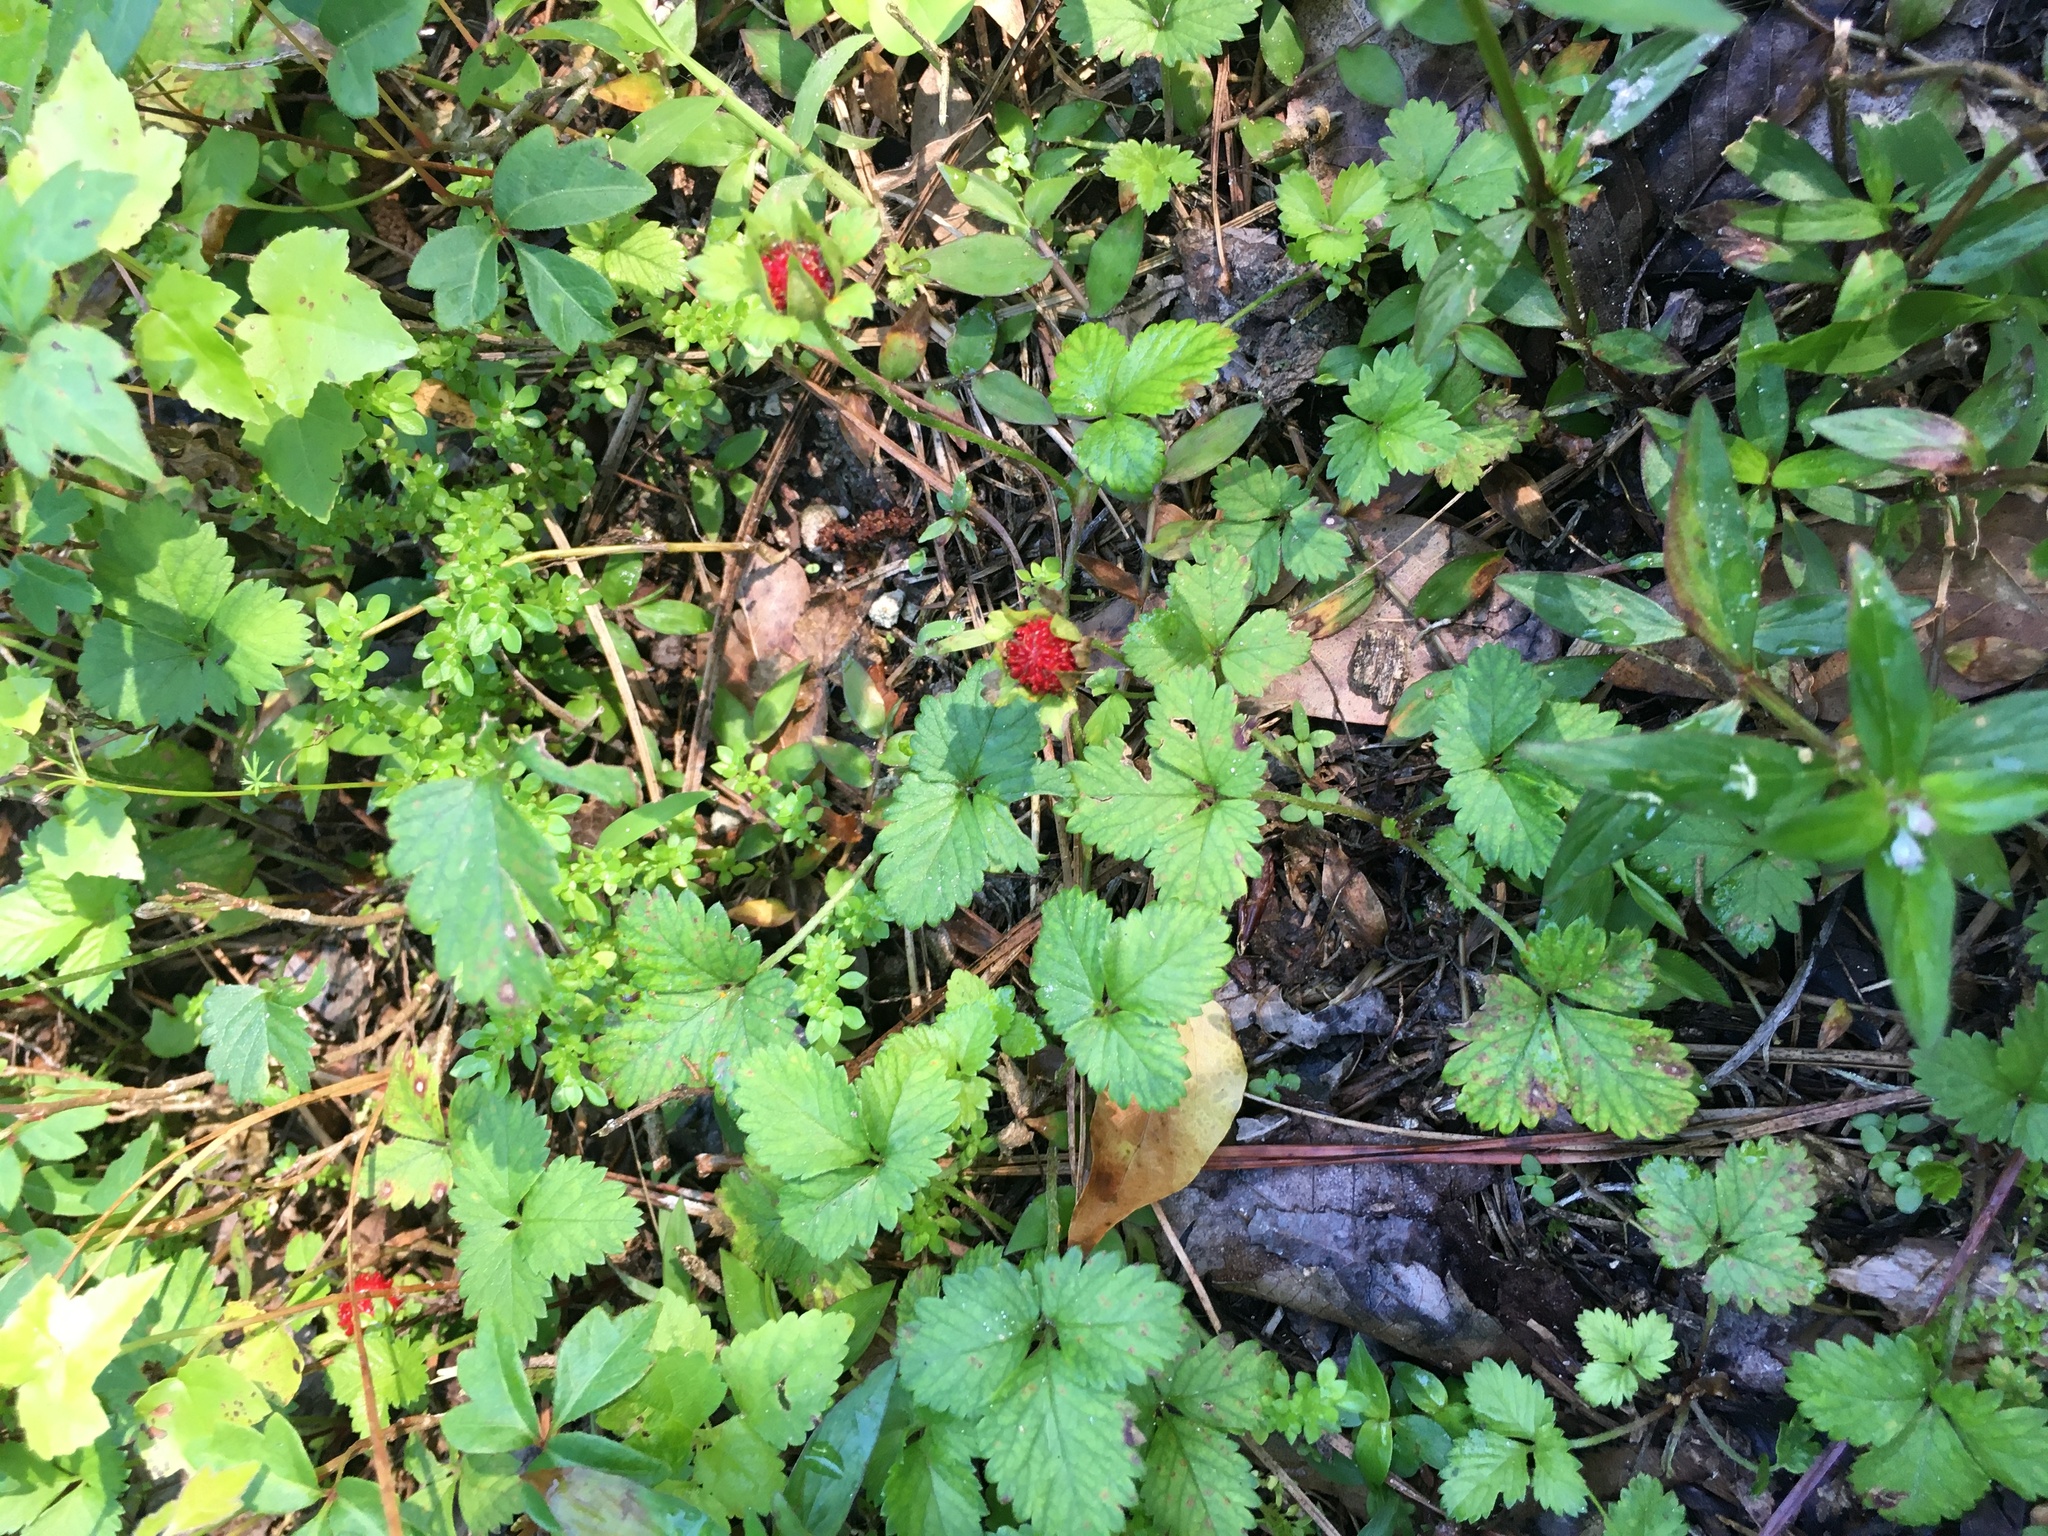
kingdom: Plantae
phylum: Tracheophyta
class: Magnoliopsida
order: Rosales
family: Rosaceae
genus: Potentilla
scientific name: Potentilla indica
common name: Yellow-flowered strawberry
